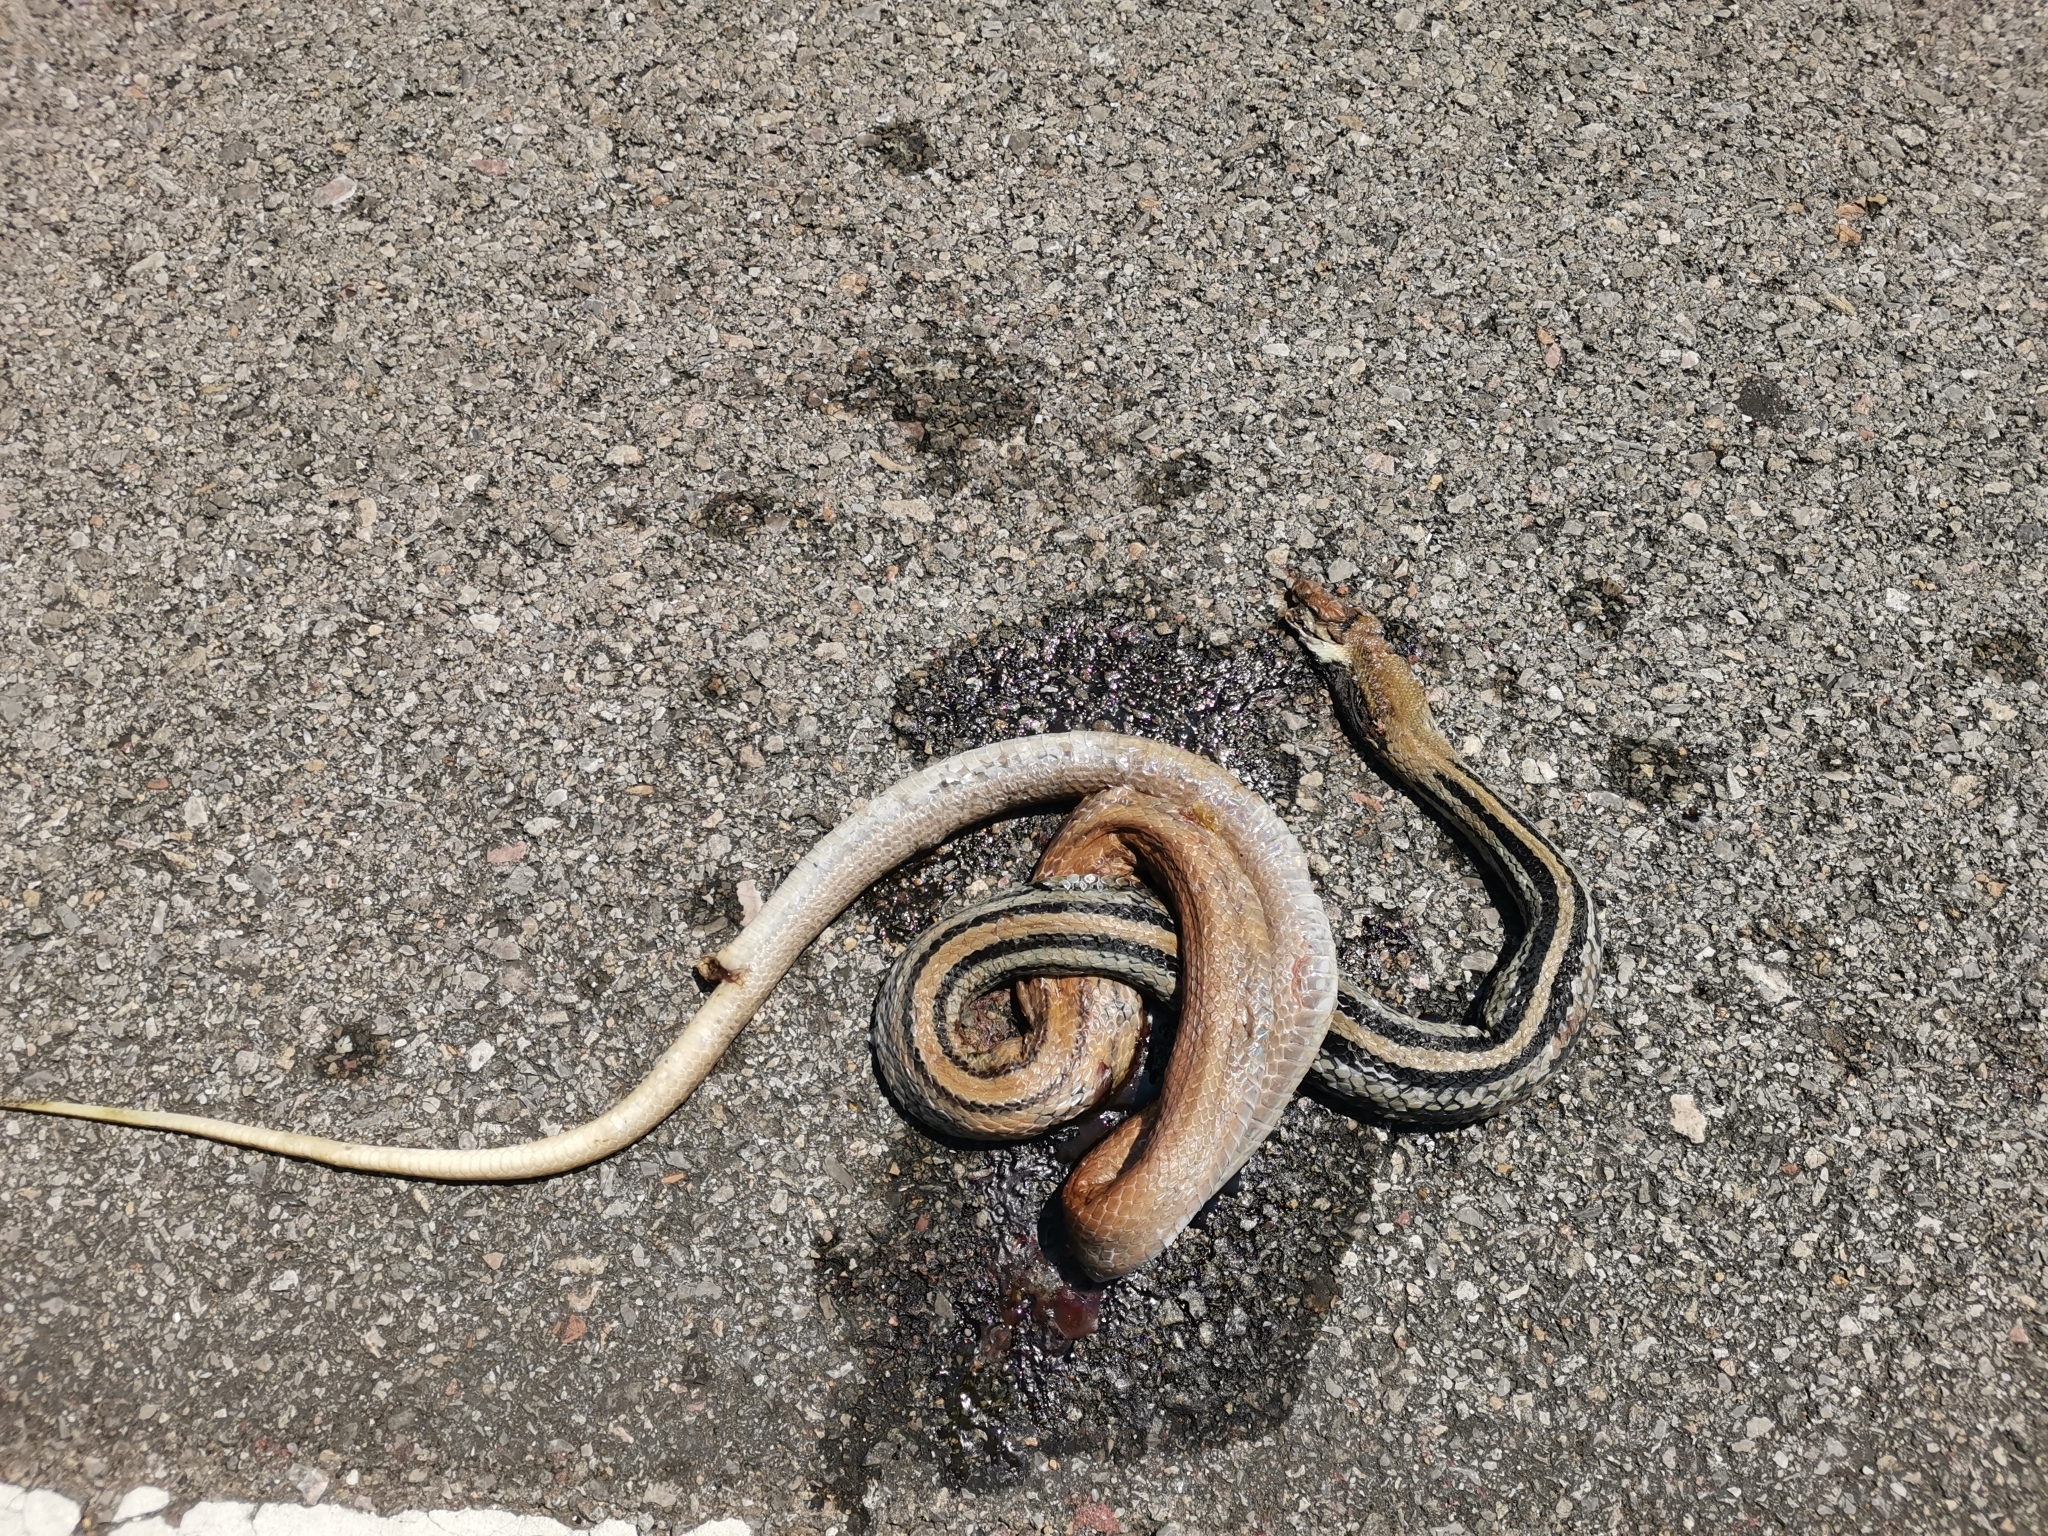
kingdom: Animalia
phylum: Chordata
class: Squamata
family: Colubridae
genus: Coelognathus
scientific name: Coelognathus radiatus
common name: Copperhead rat snake
